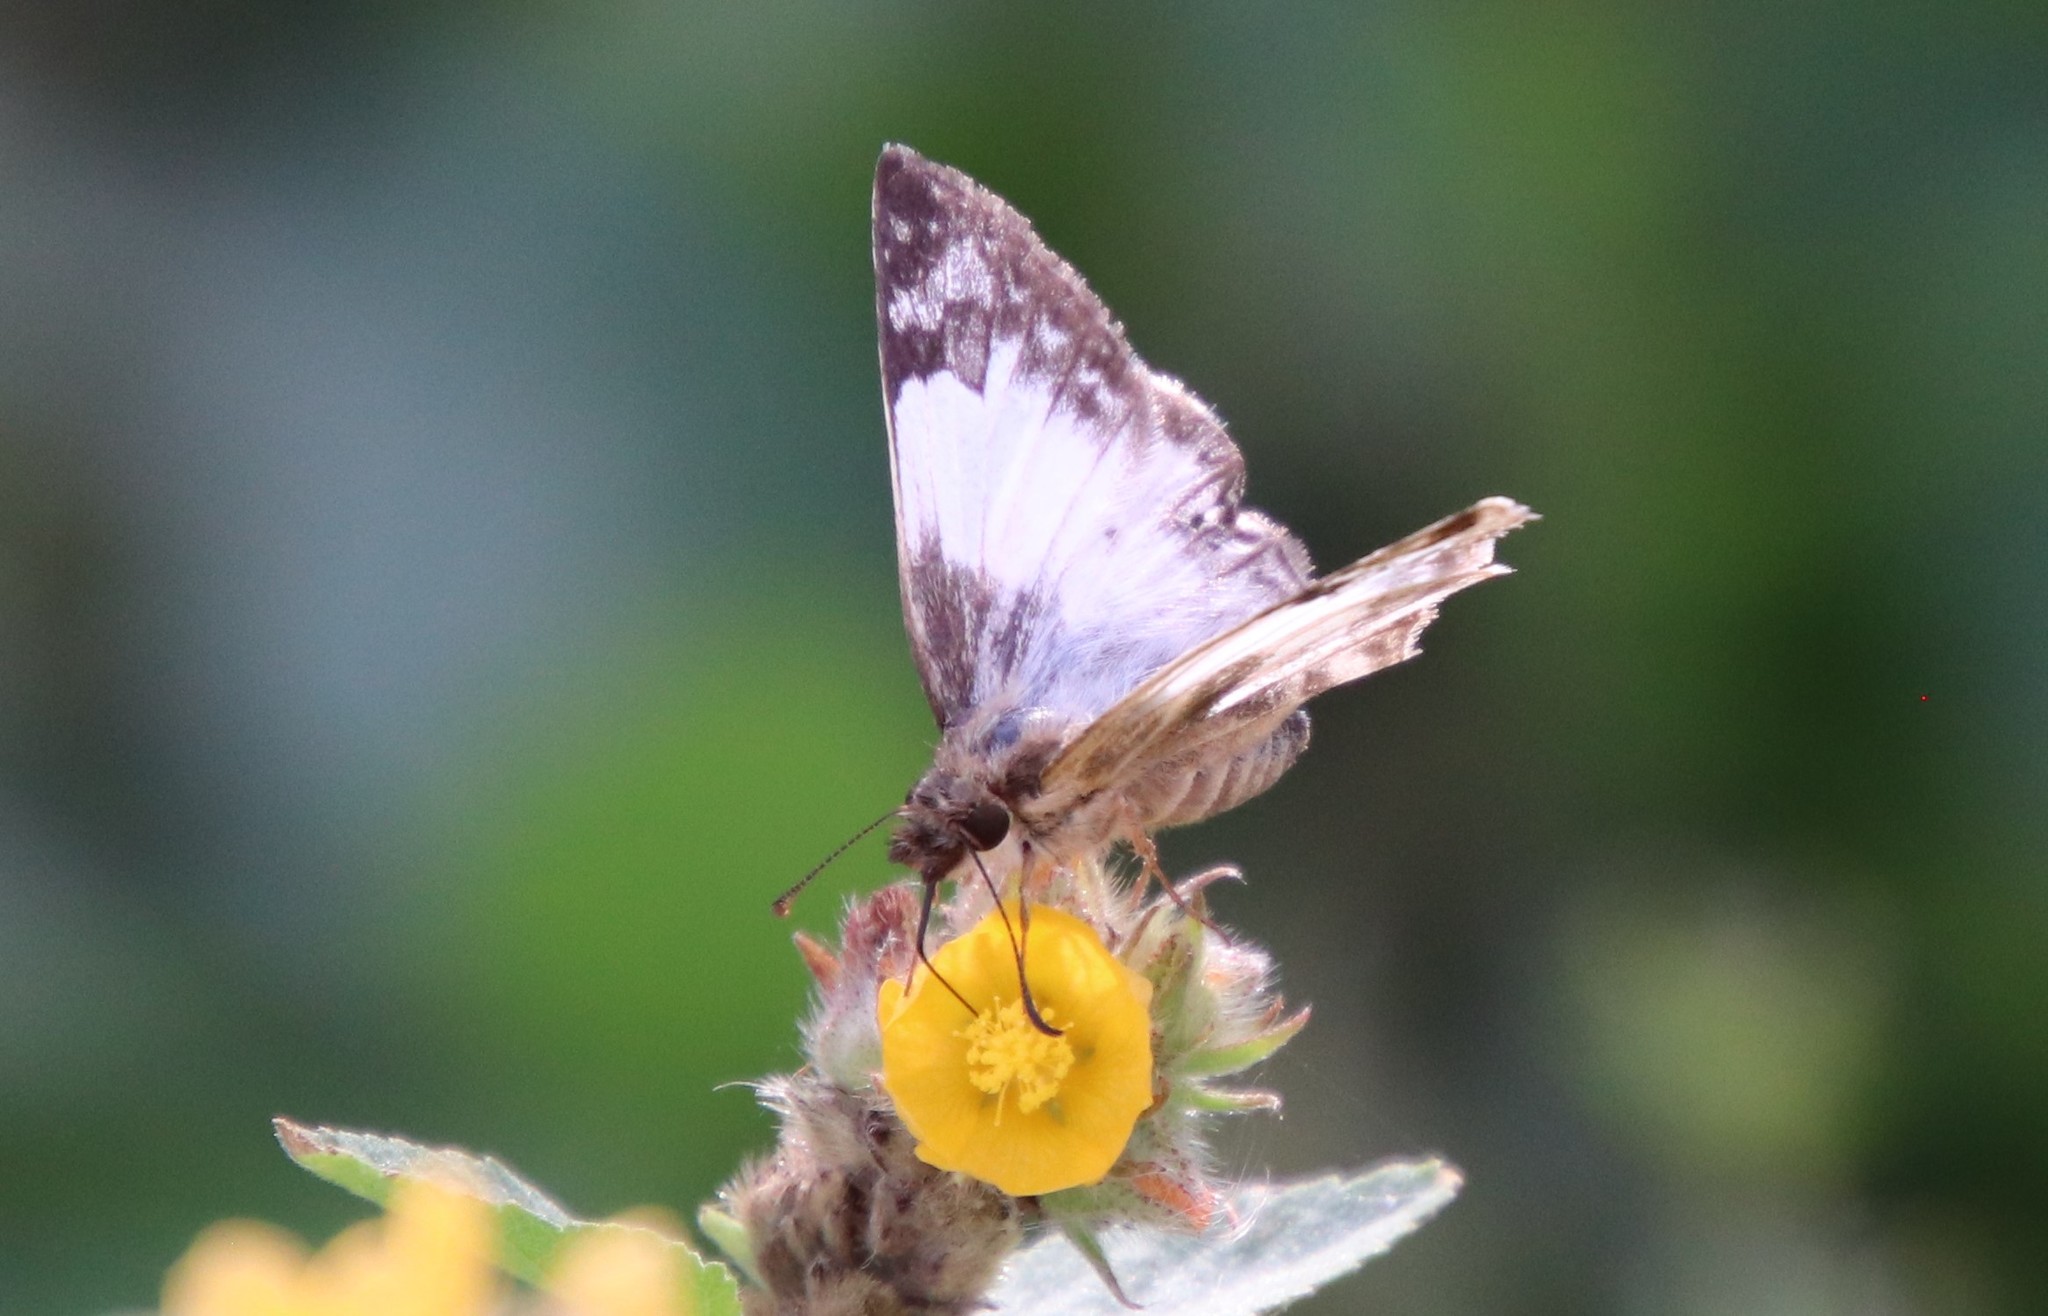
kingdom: Animalia
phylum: Arthropoda
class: Insecta
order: Lepidoptera
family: Hesperiidae
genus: Heliopetes
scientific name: Heliopetes laviana
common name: Laviana white-skipper
